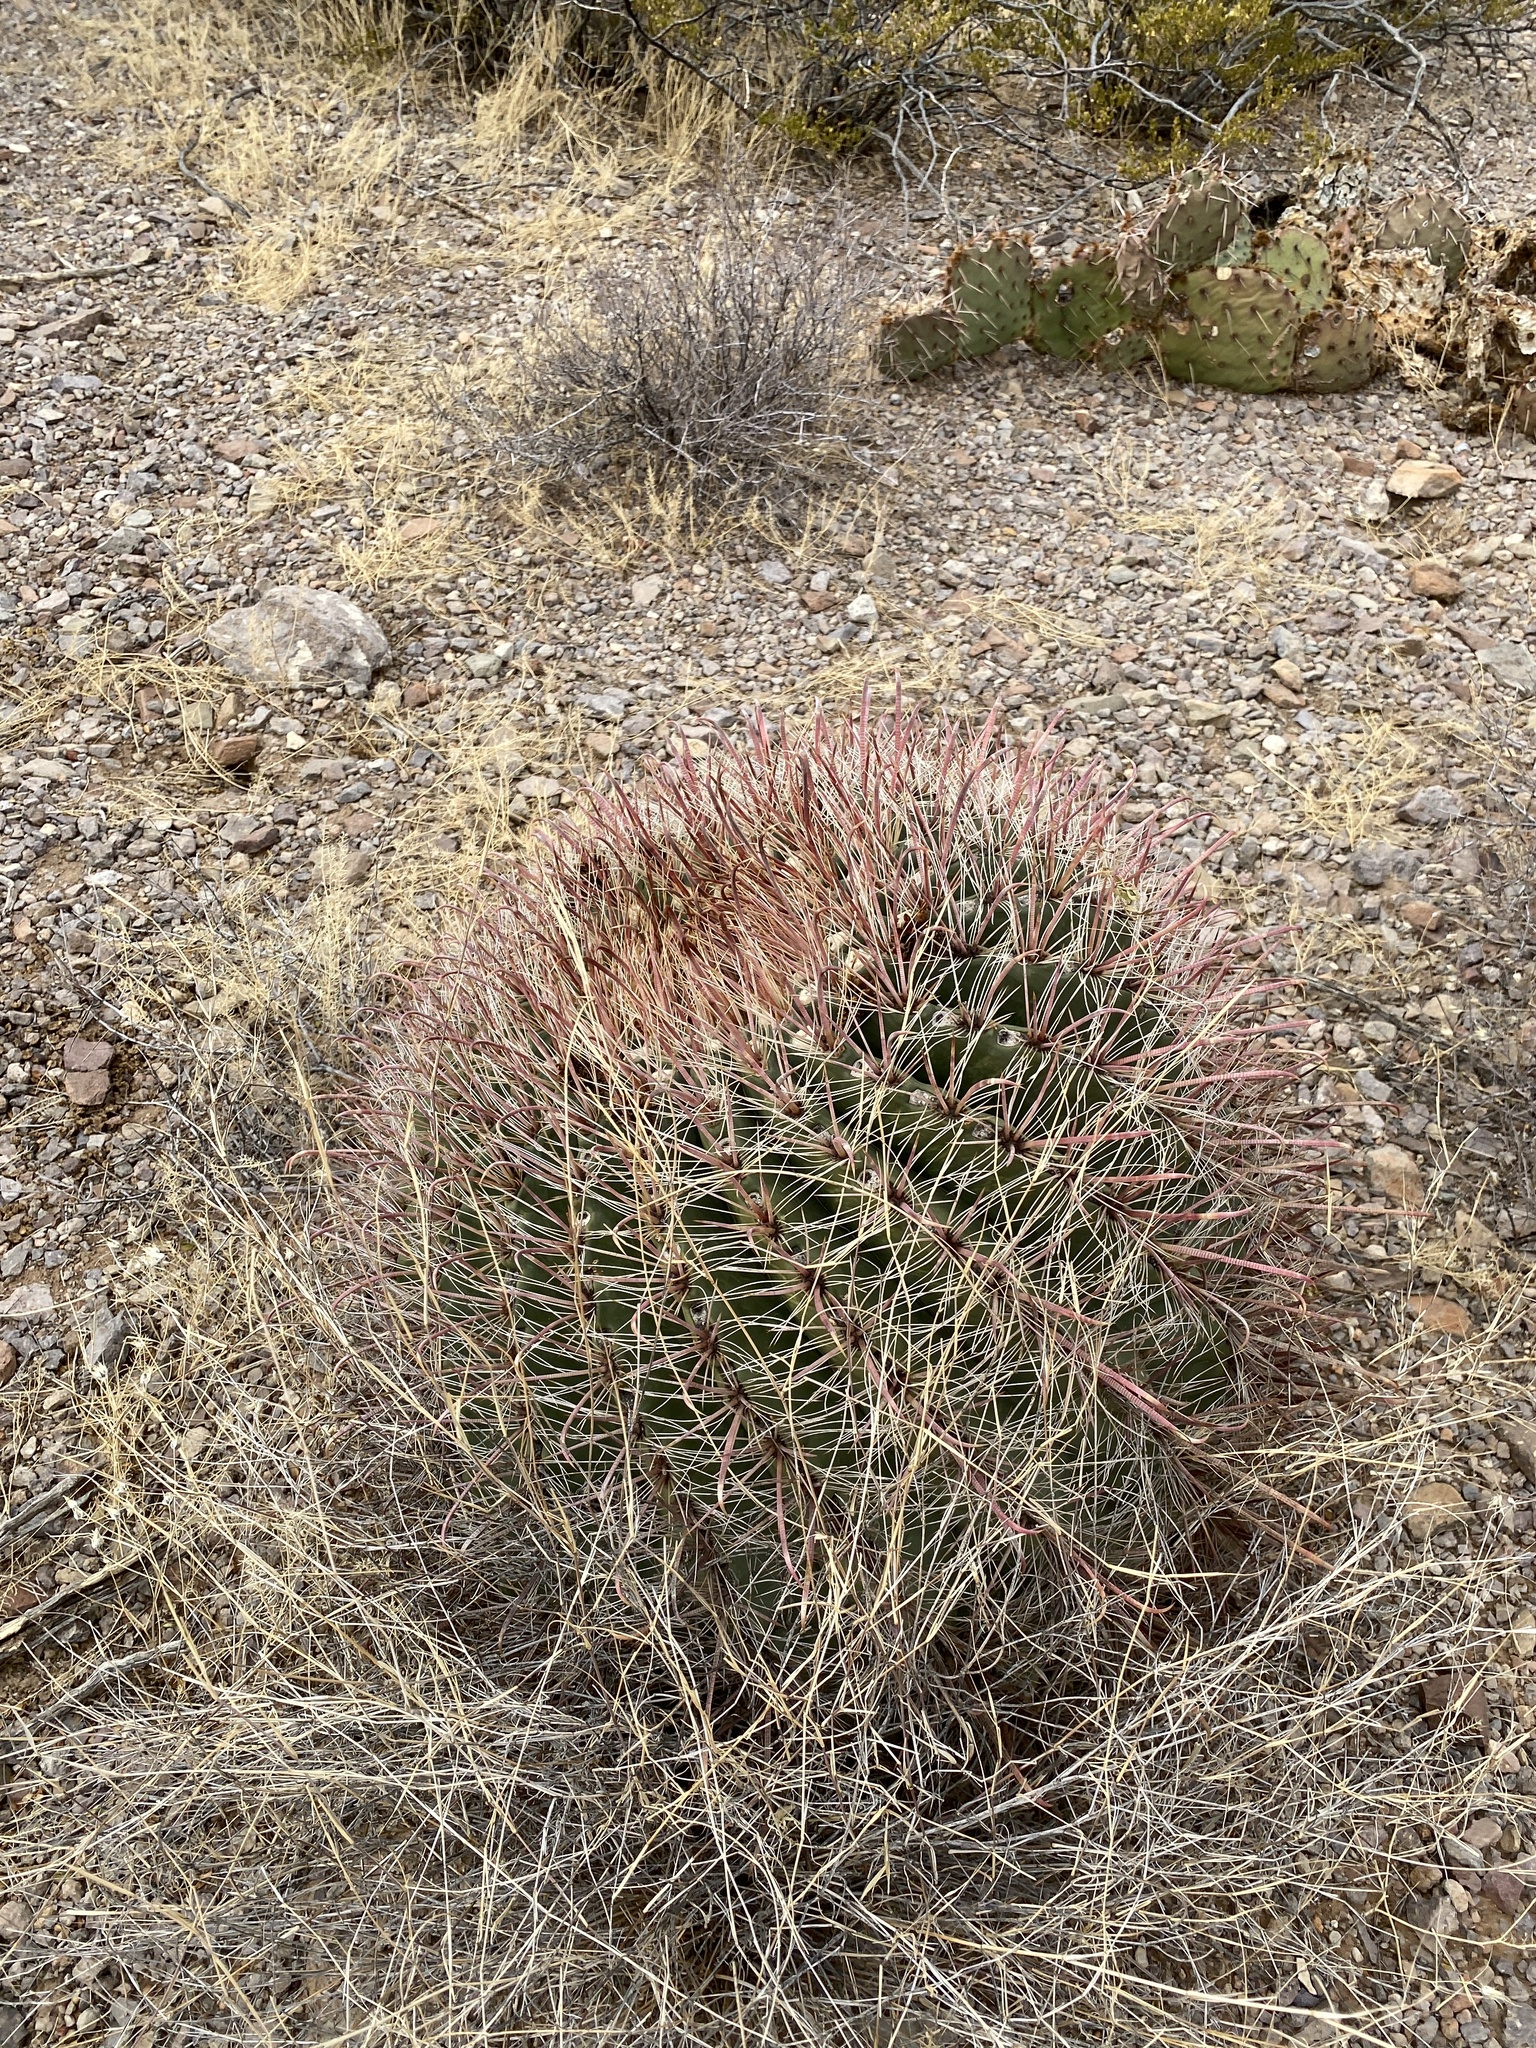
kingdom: Plantae
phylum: Tracheophyta
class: Magnoliopsida
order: Caryophyllales
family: Cactaceae
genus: Ferocactus
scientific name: Ferocactus wislizeni
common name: Candy barrel cactus
